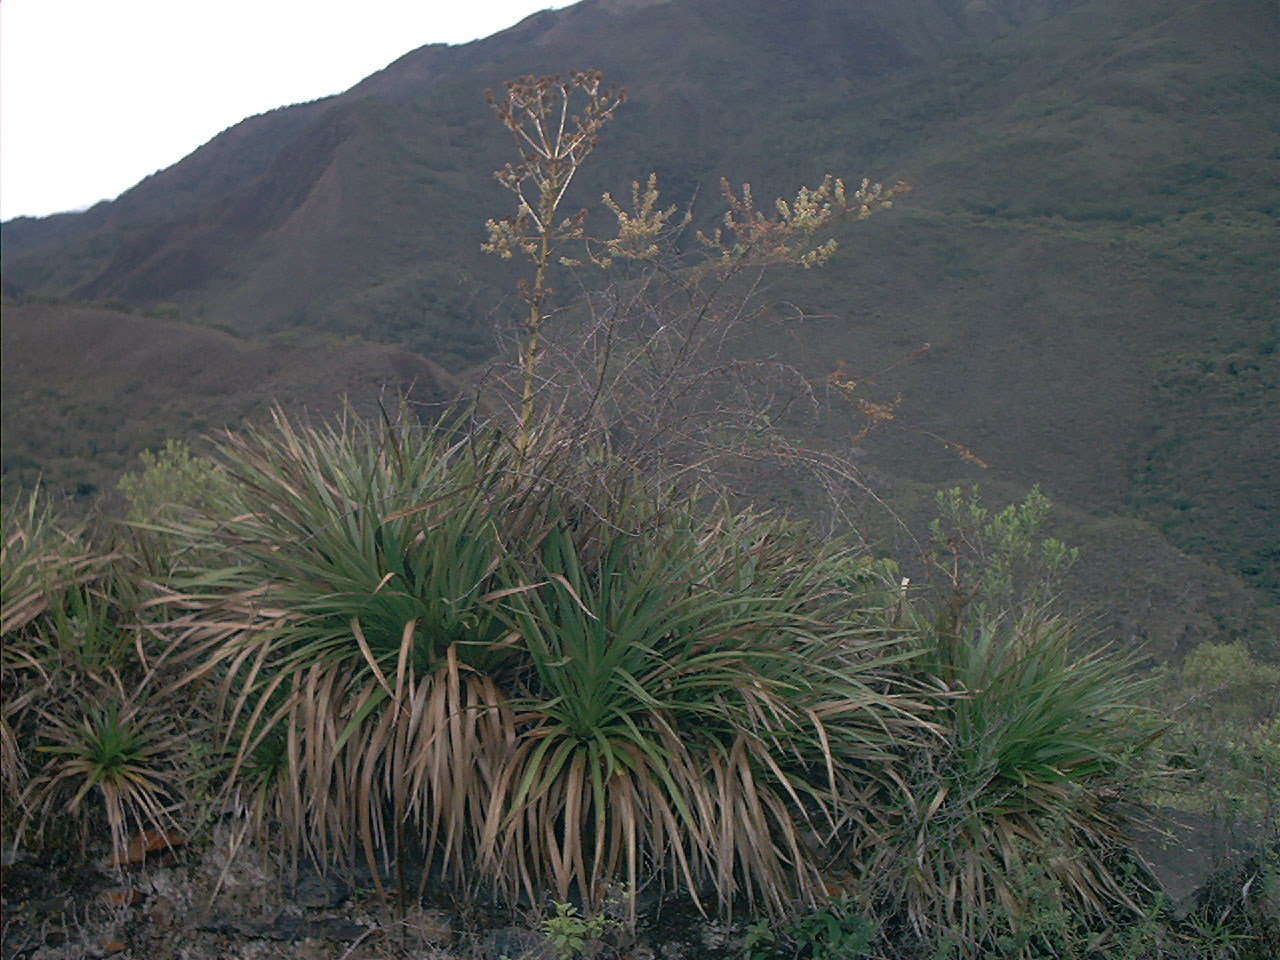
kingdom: Plantae
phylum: Tracheophyta
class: Magnoliopsida
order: Apiales
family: Apiaceae
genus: Eryngium
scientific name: Eryngium rauhianum
